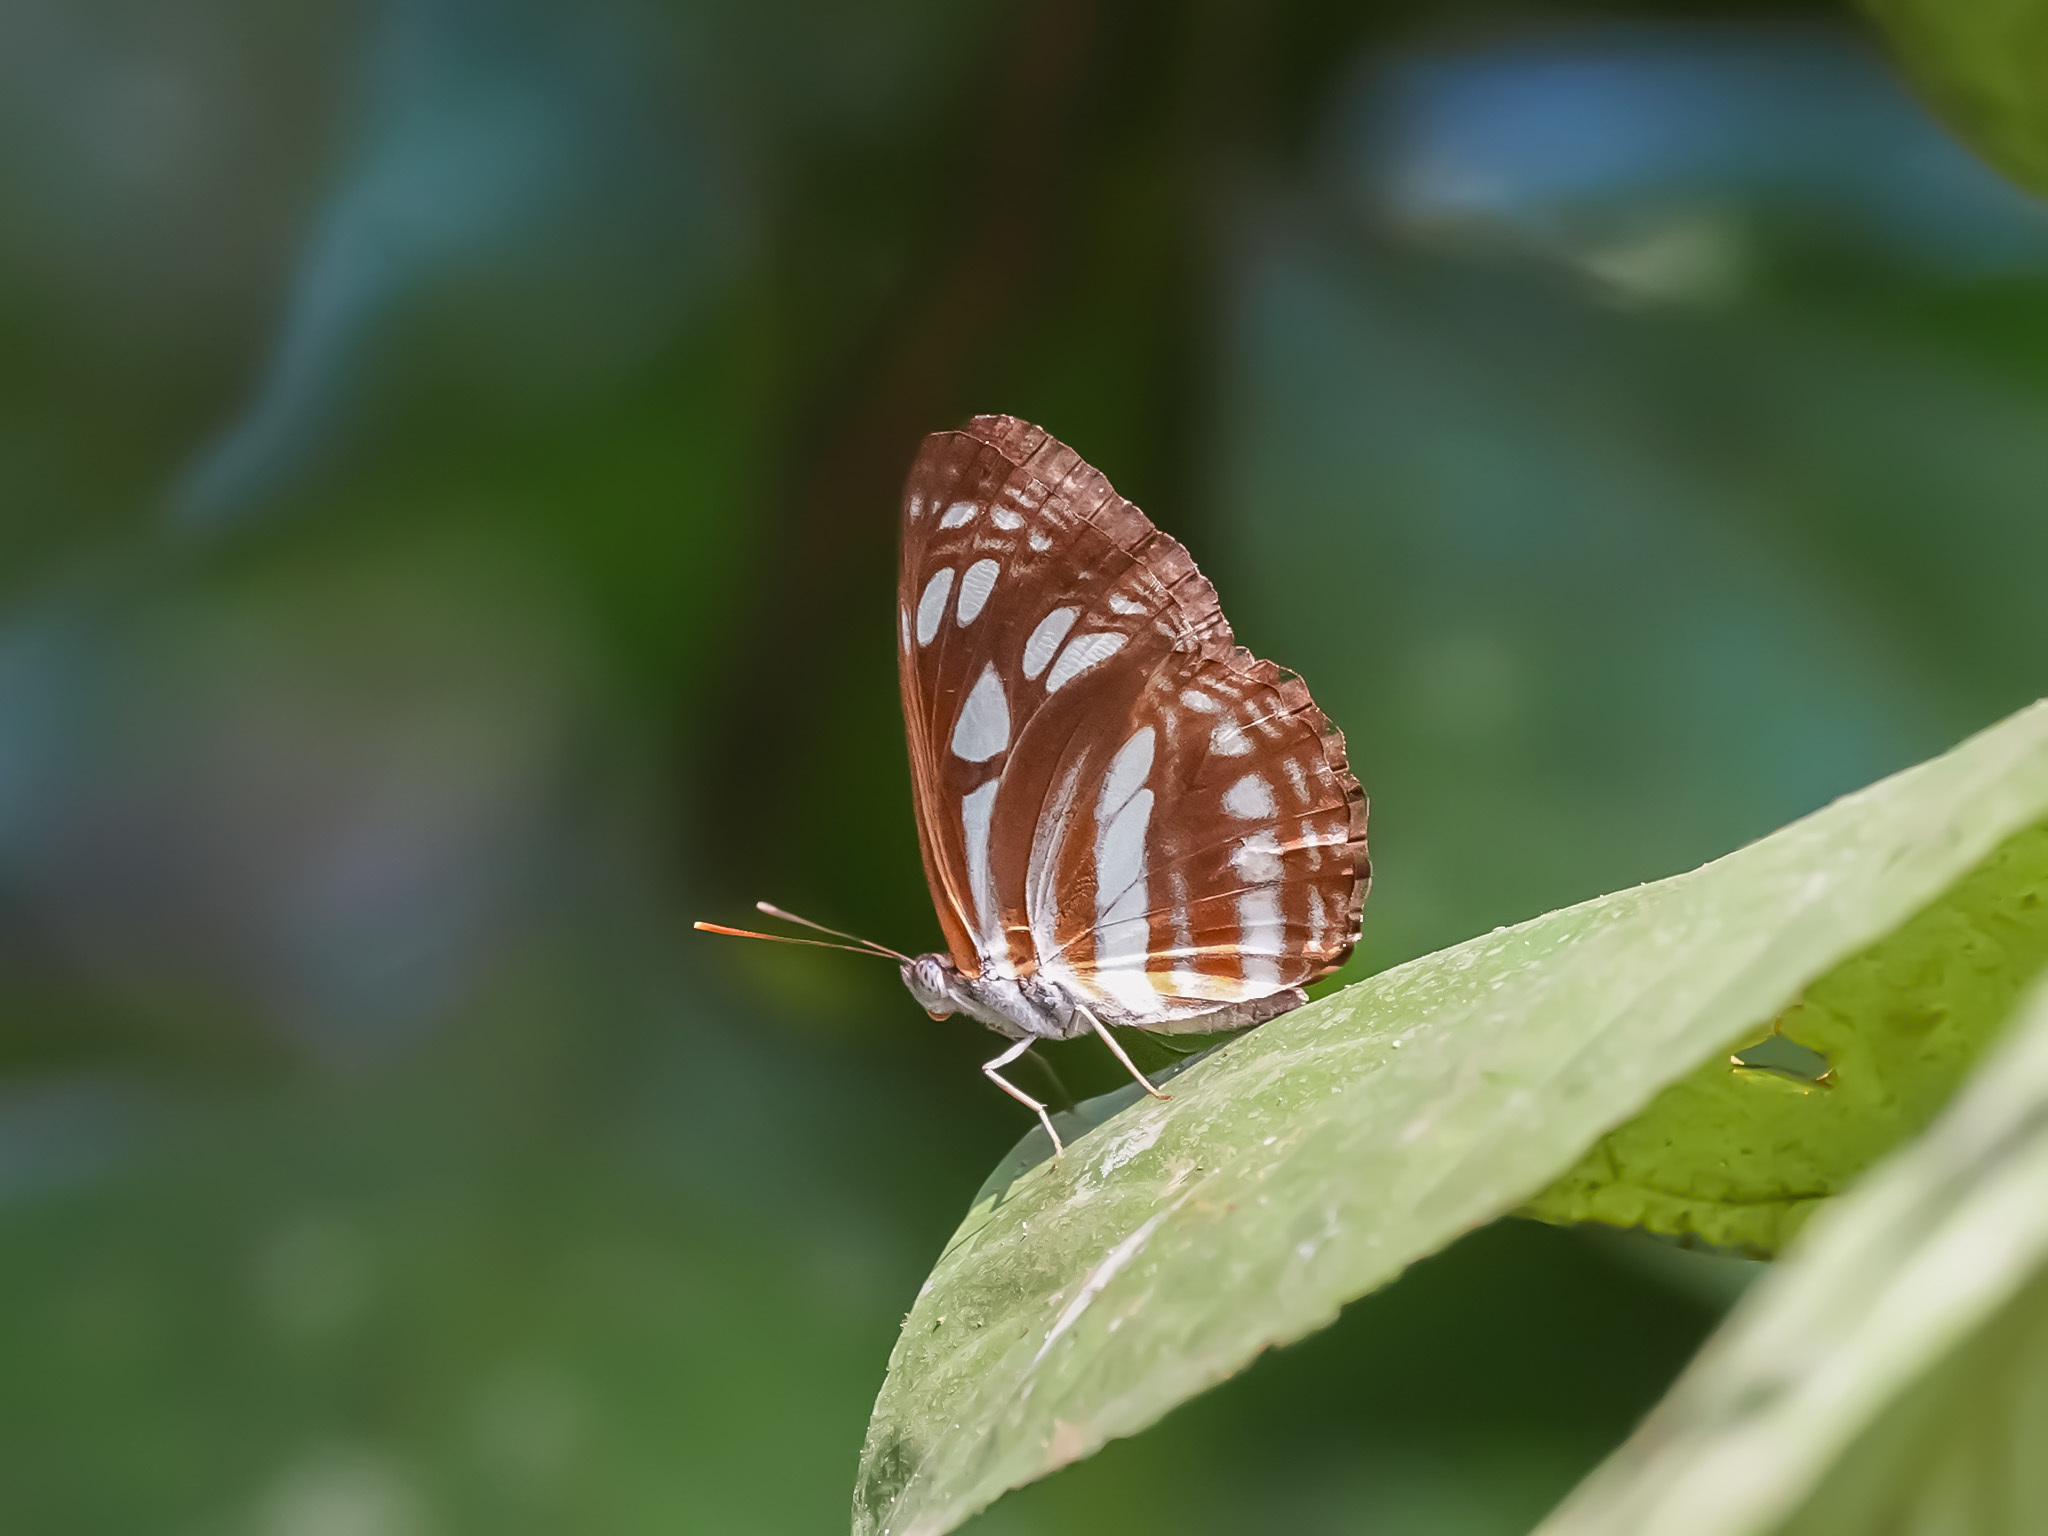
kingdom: Animalia
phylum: Arthropoda
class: Insecta
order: Lepidoptera
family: Nymphalidae
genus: Neptis
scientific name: Neptis hylas
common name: Common sailer
